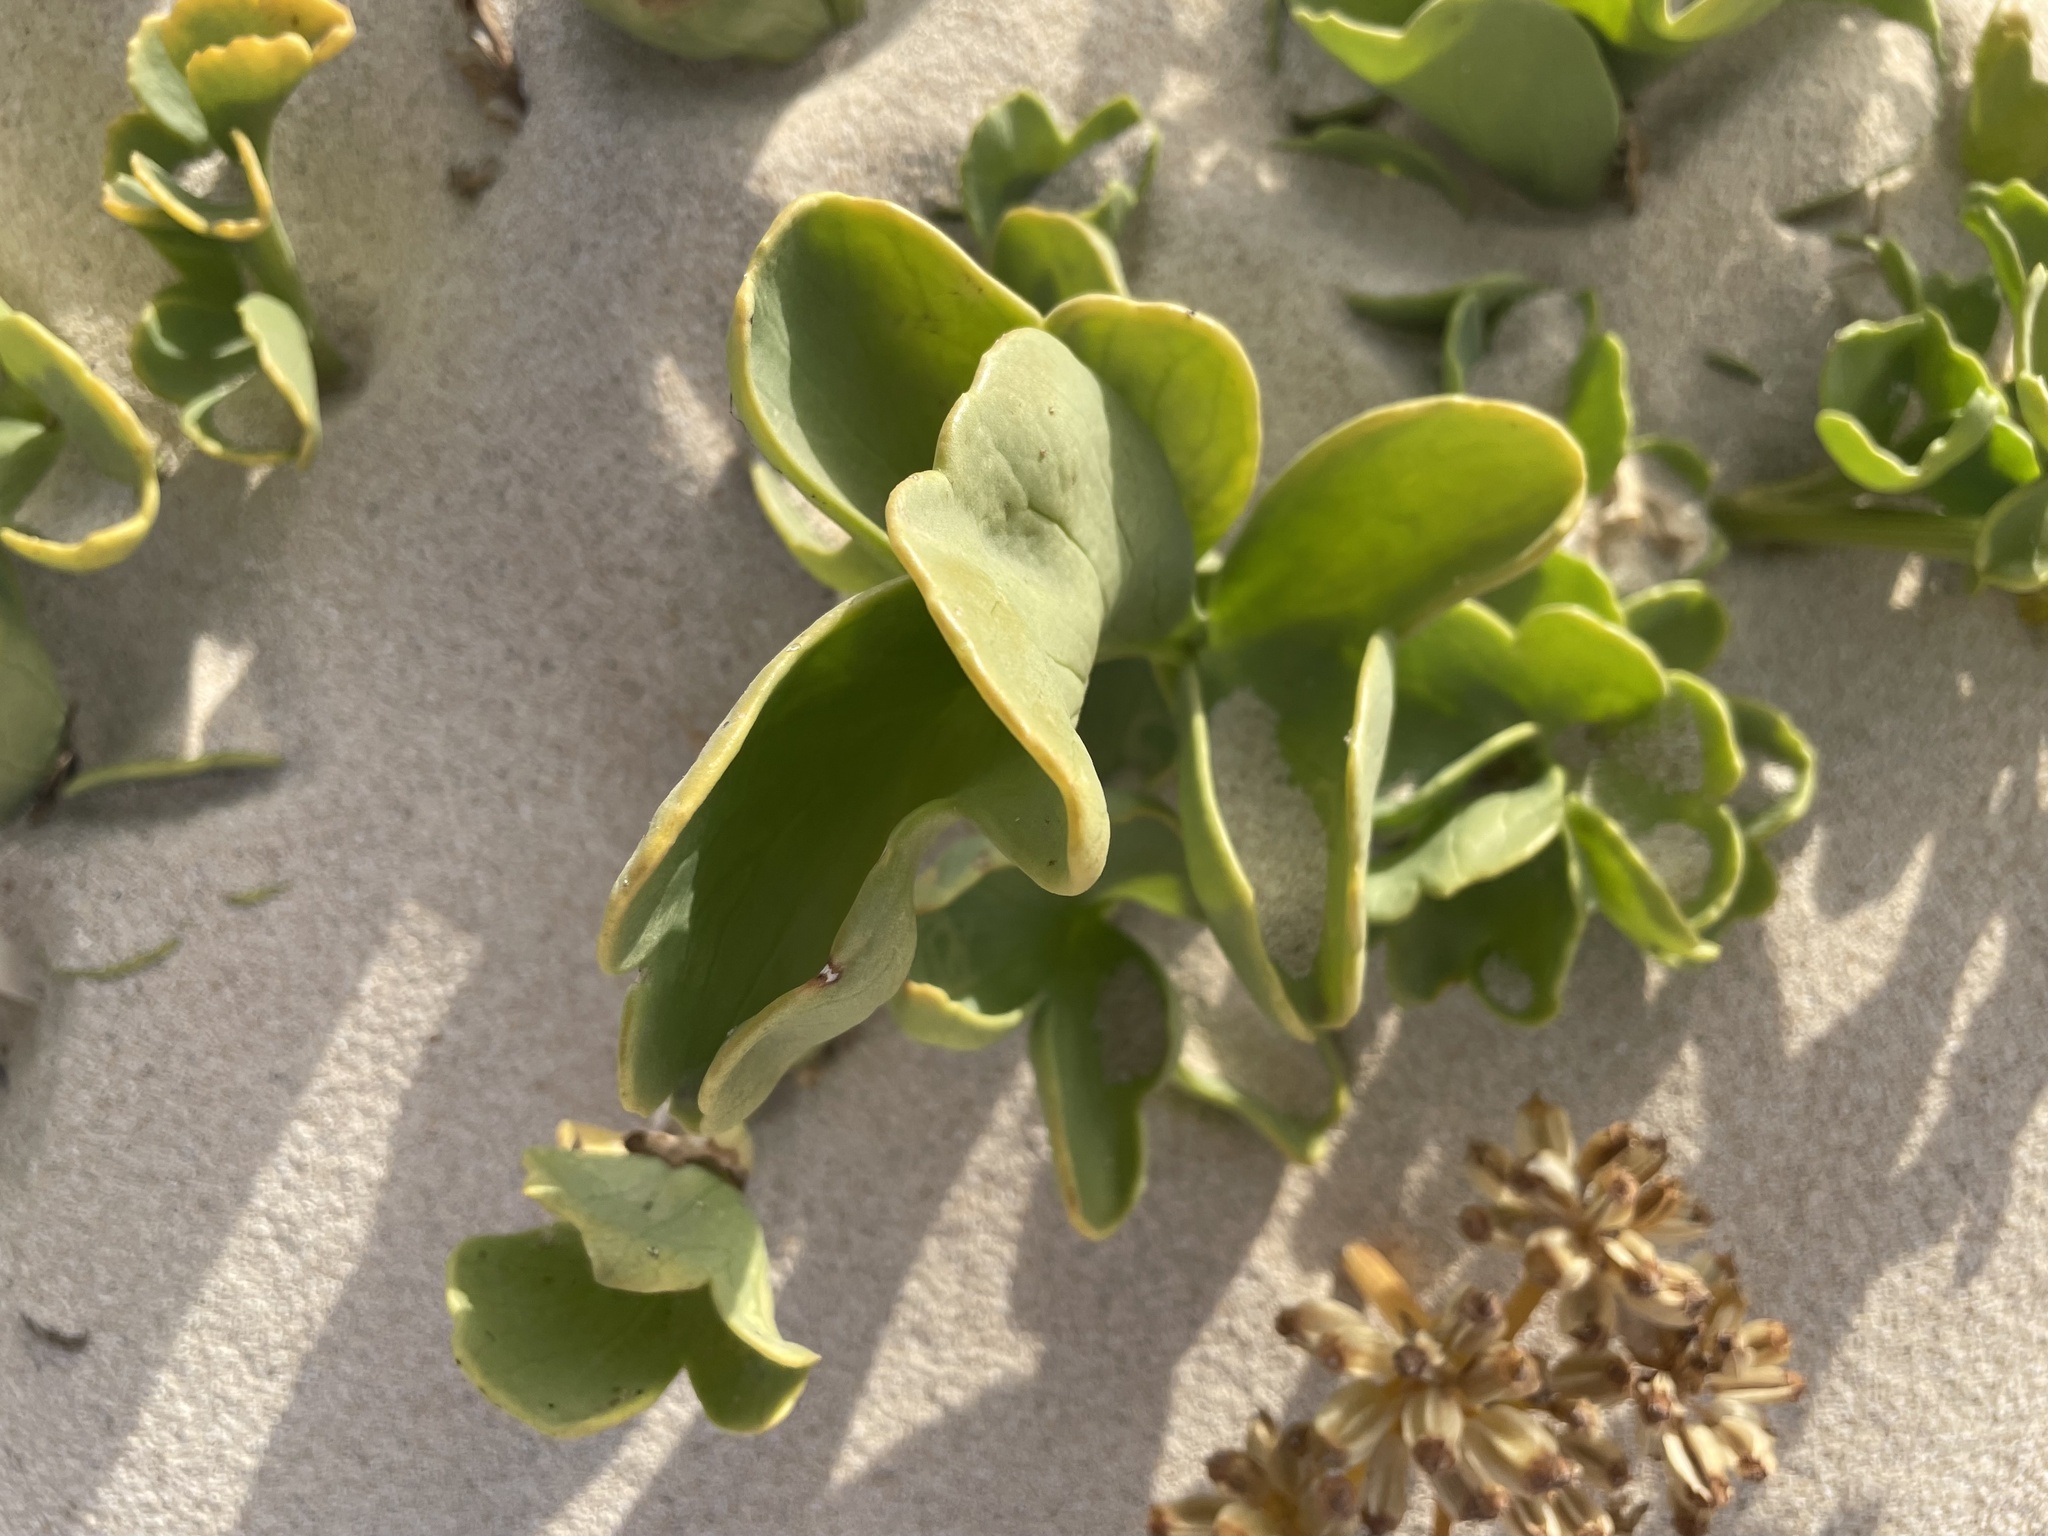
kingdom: Plantae
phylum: Tracheophyta
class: Magnoliopsida
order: Apiales
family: Apiaceae
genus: Astydamia
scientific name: Astydamia latifolia
